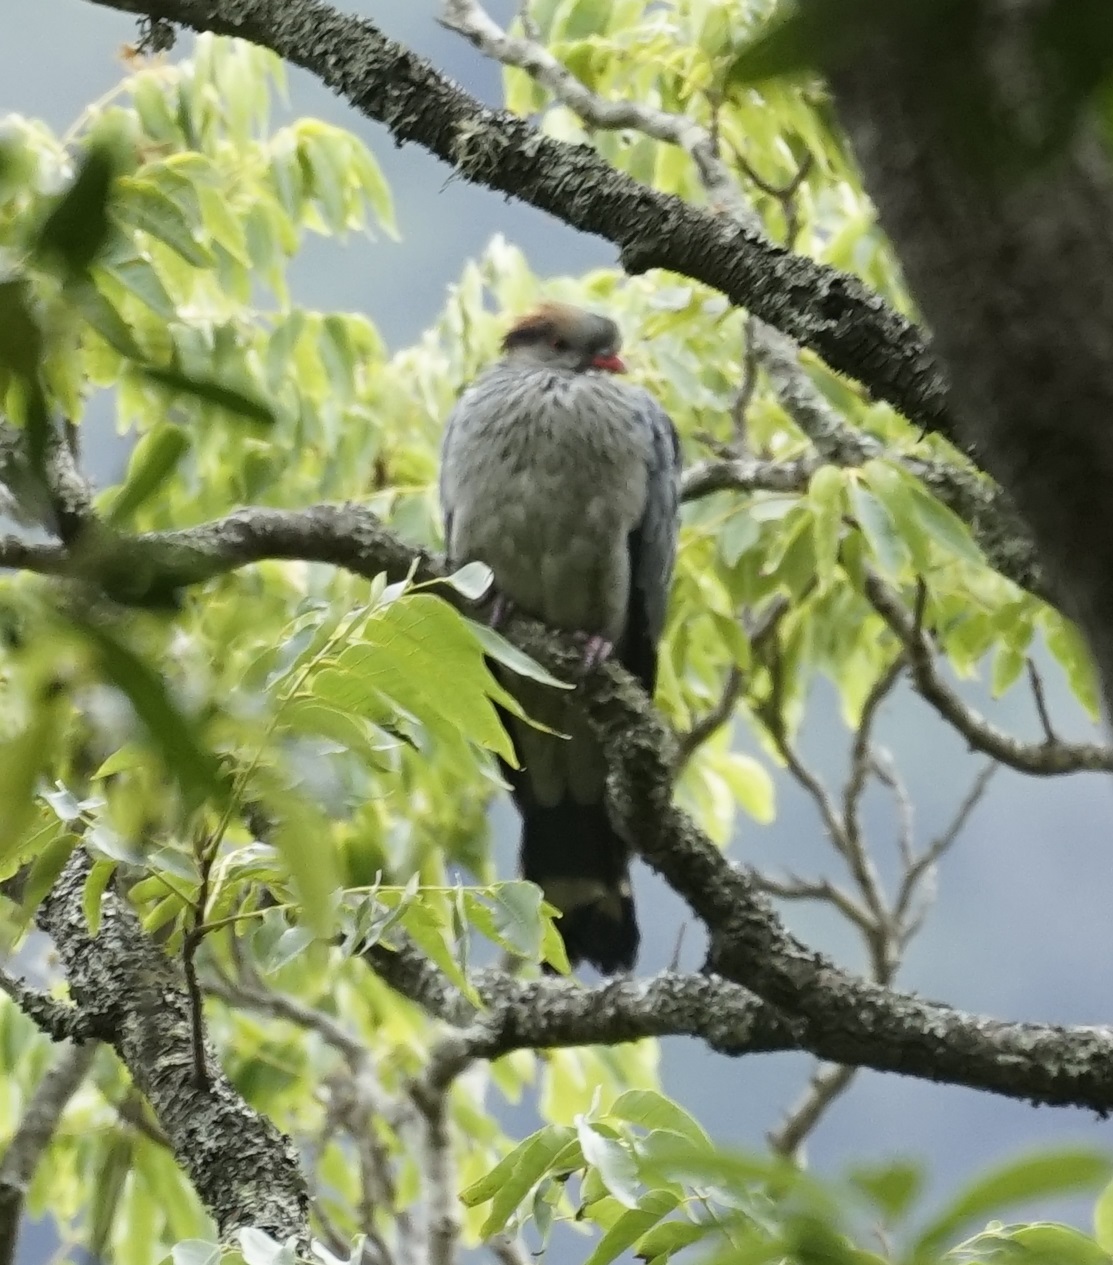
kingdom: Animalia
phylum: Chordata
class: Aves
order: Columbiformes
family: Columbidae
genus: Lopholaimus
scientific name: Lopholaimus antarcticus
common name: Topknot pigeon
